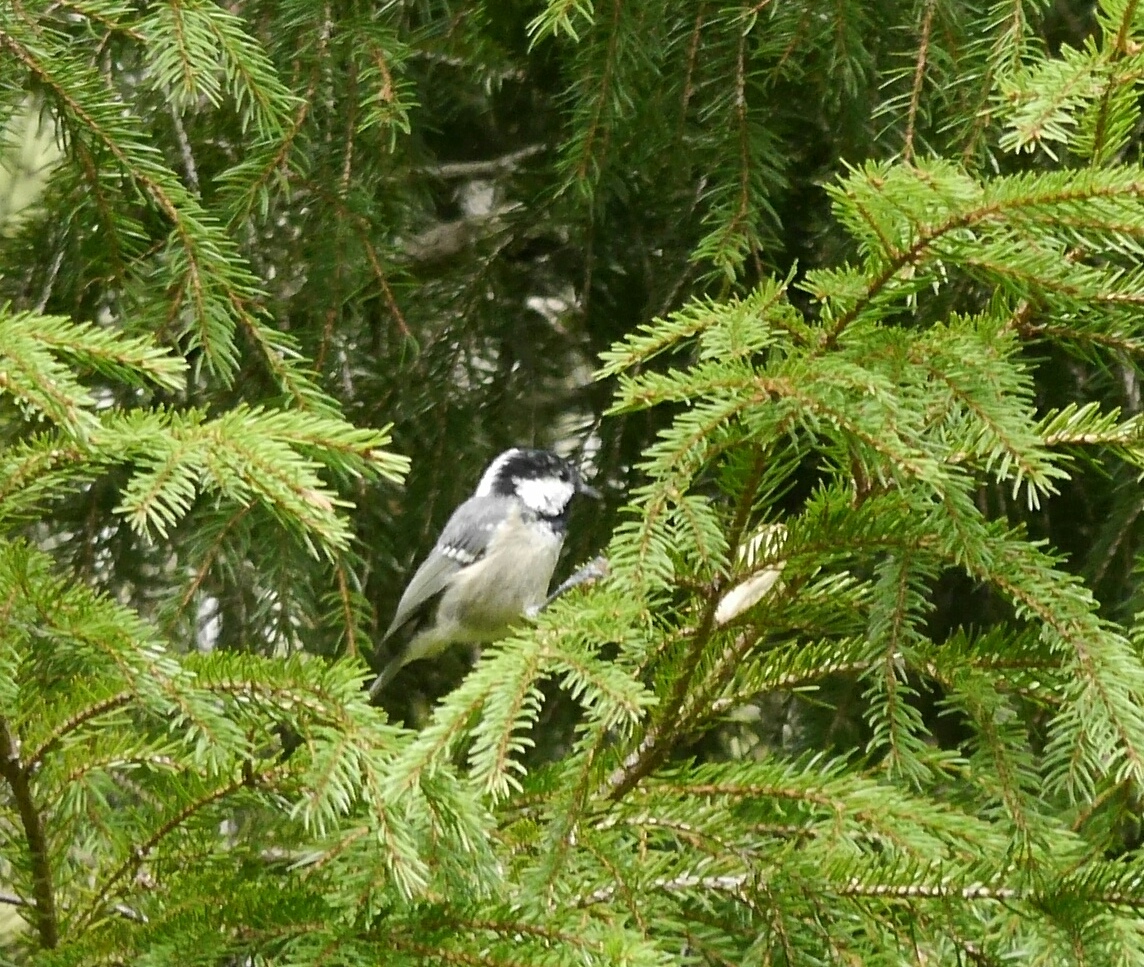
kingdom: Animalia
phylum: Chordata
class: Aves
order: Passeriformes
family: Paridae
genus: Periparus
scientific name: Periparus ater
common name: Coal tit
